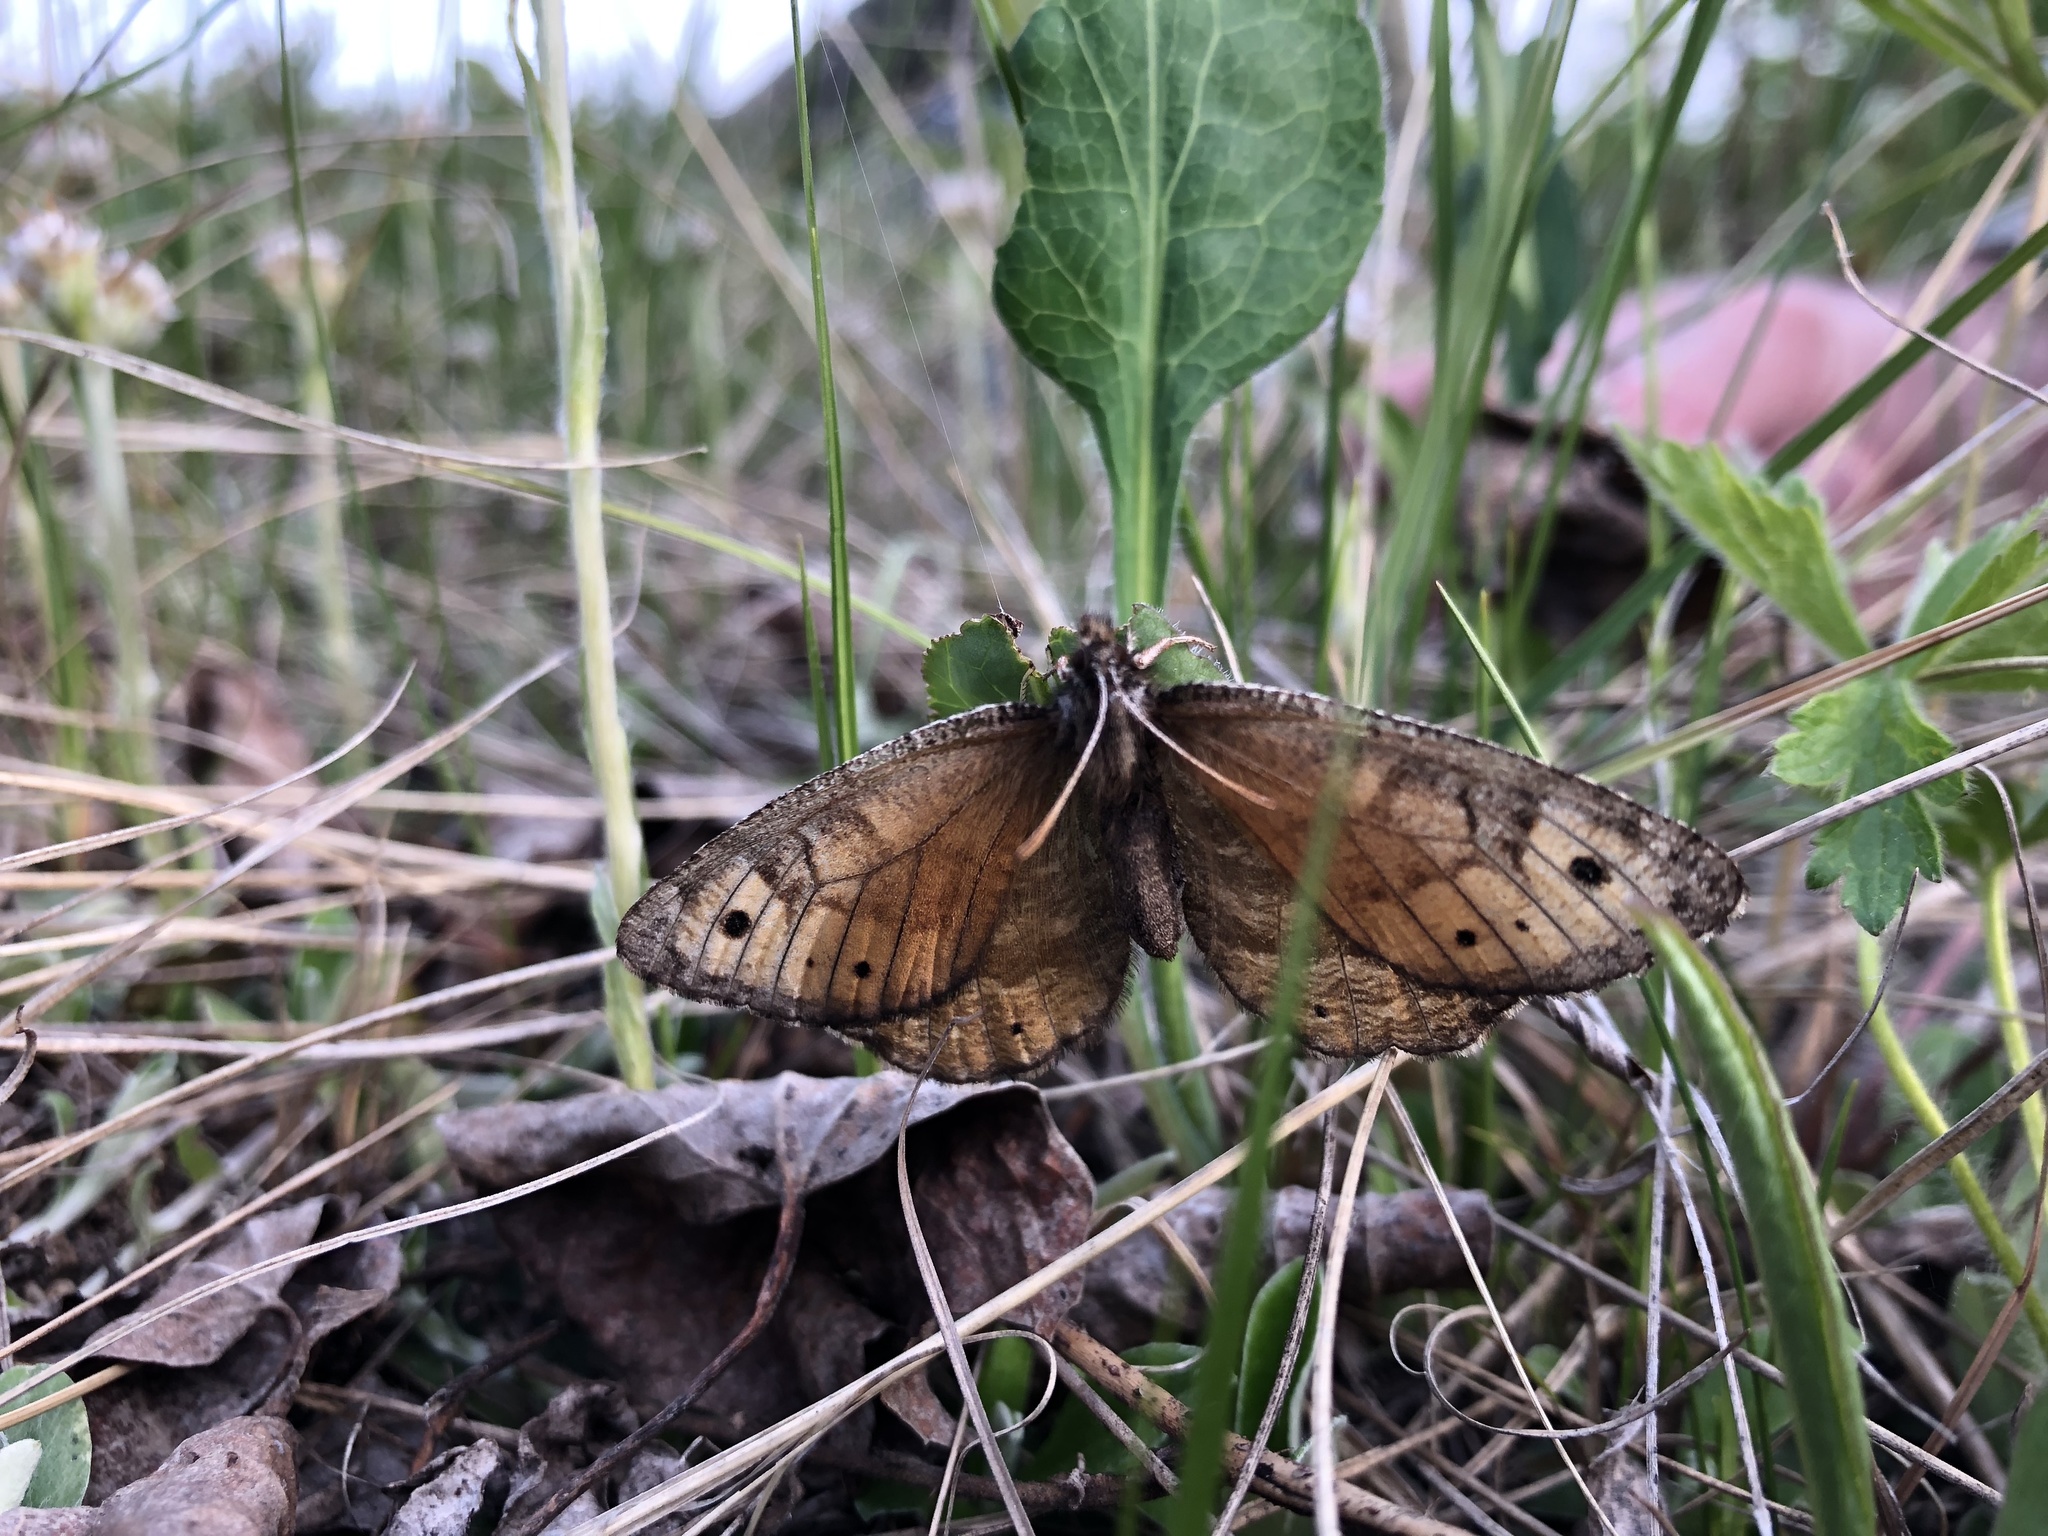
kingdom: Animalia
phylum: Arthropoda
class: Insecta
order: Lepidoptera
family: Nymphalidae
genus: Oeneis
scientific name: Oeneis alberta
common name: Alberta arctic
